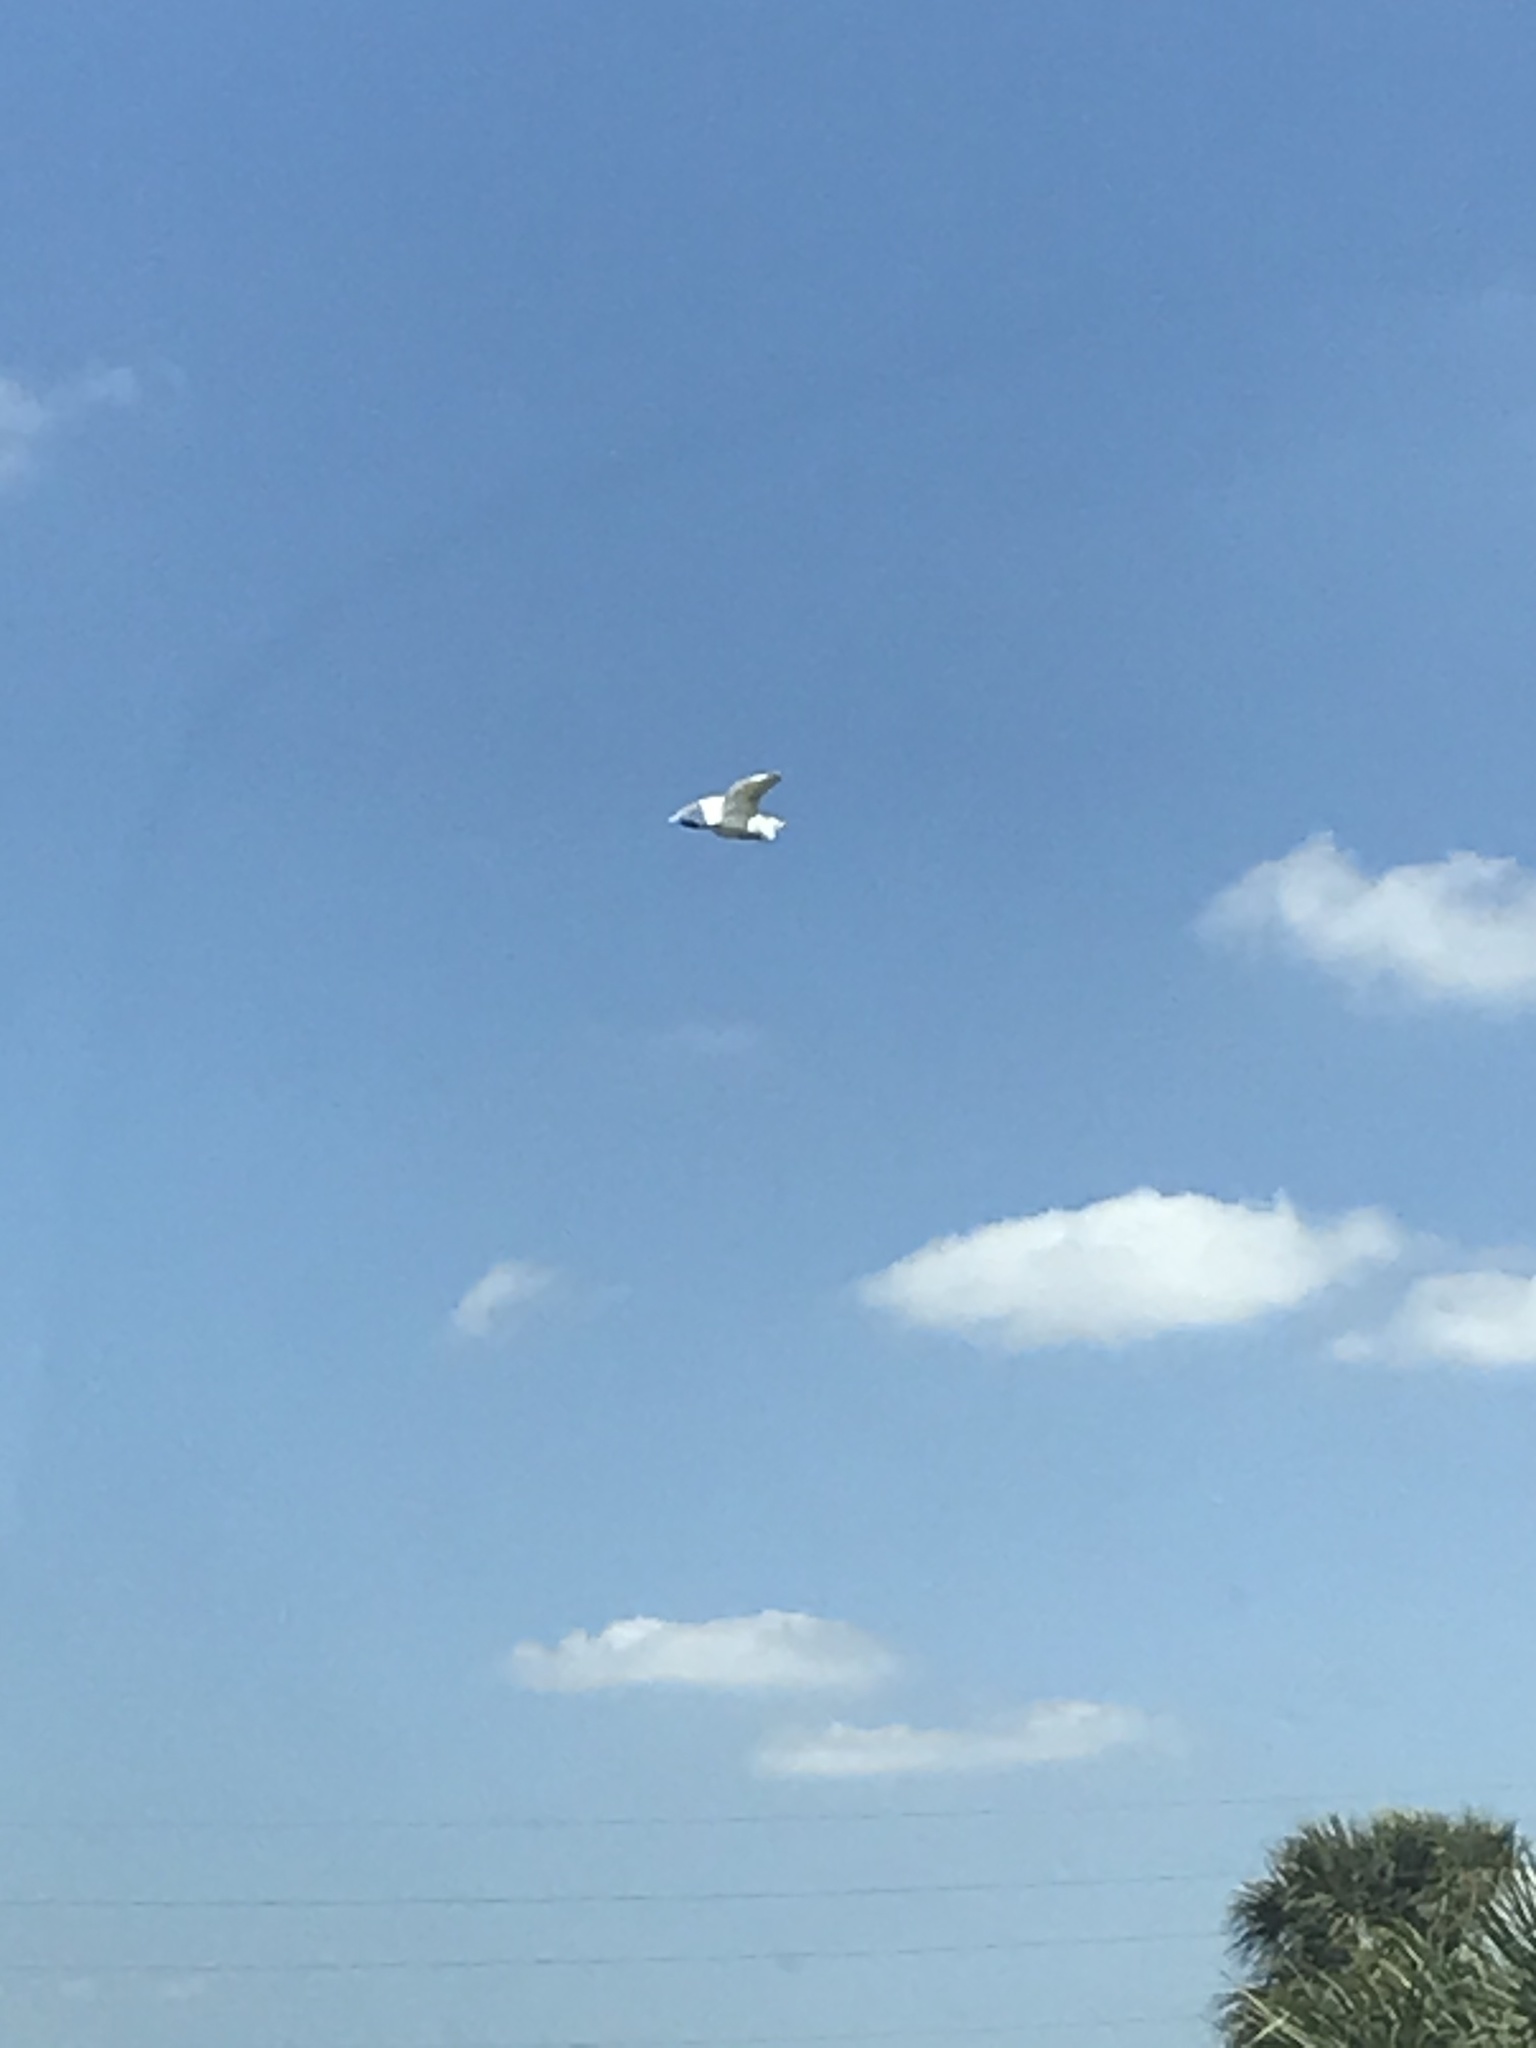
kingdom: Animalia
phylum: Chordata
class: Aves
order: Pelecaniformes
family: Ardeidae
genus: Ardea
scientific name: Ardea alba
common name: Great egret
